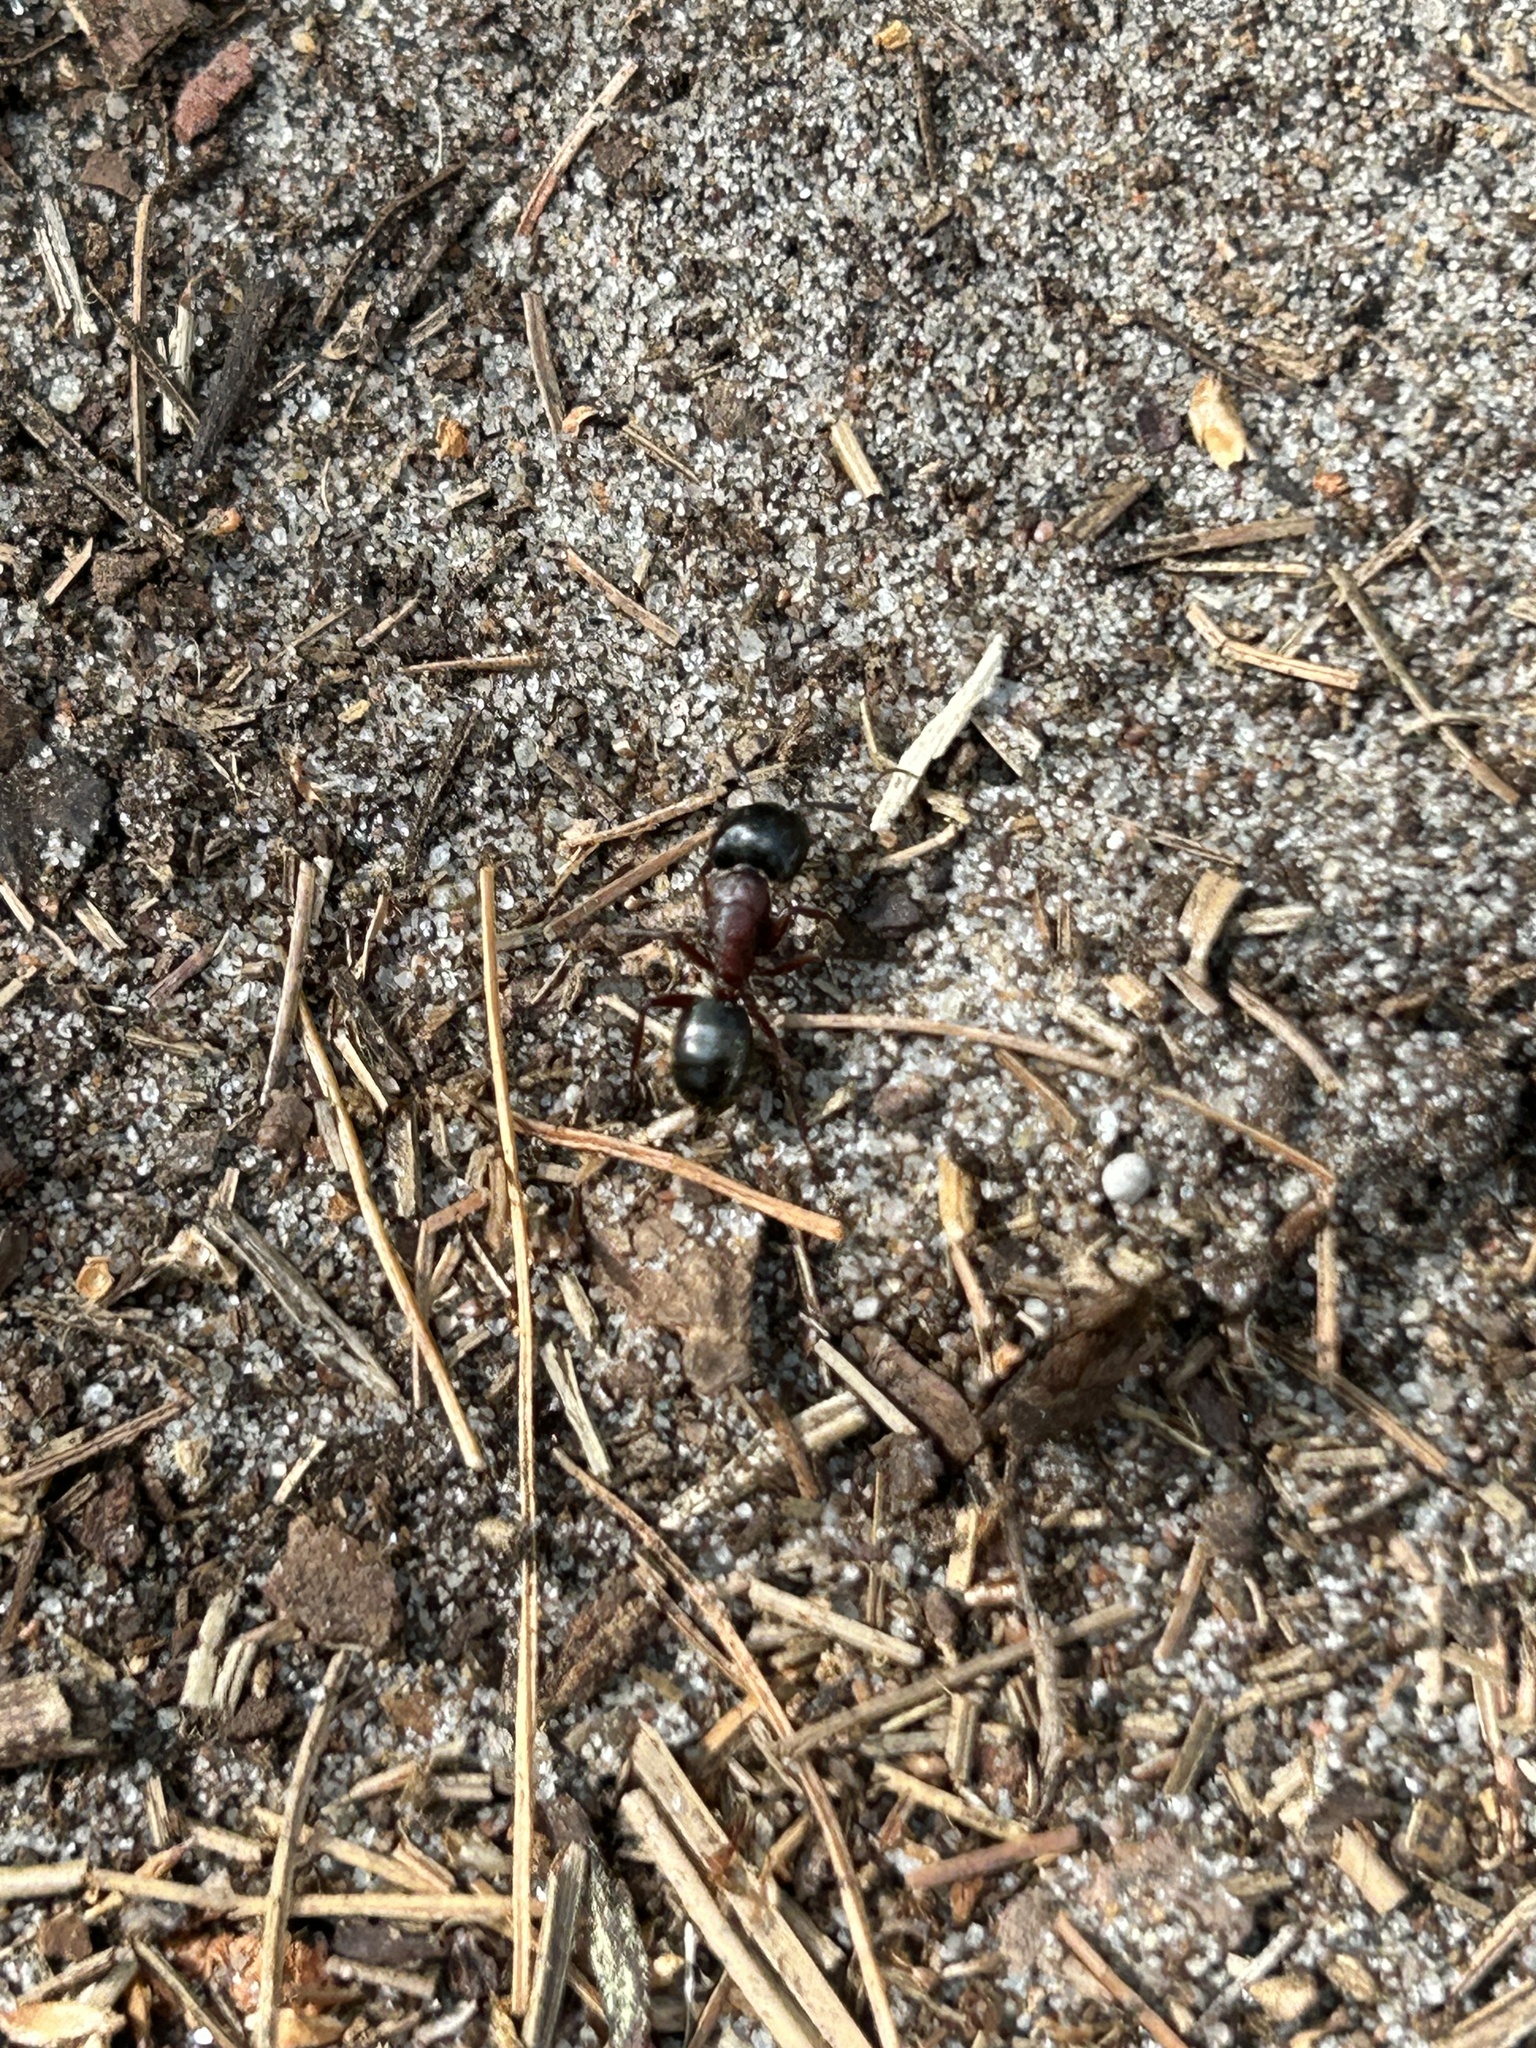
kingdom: Animalia
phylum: Arthropoda
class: Insecta
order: Hymenoptera
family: Formicidae
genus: Camponotus
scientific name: Camponotus novaeboracensis
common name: New york carpenter ant
